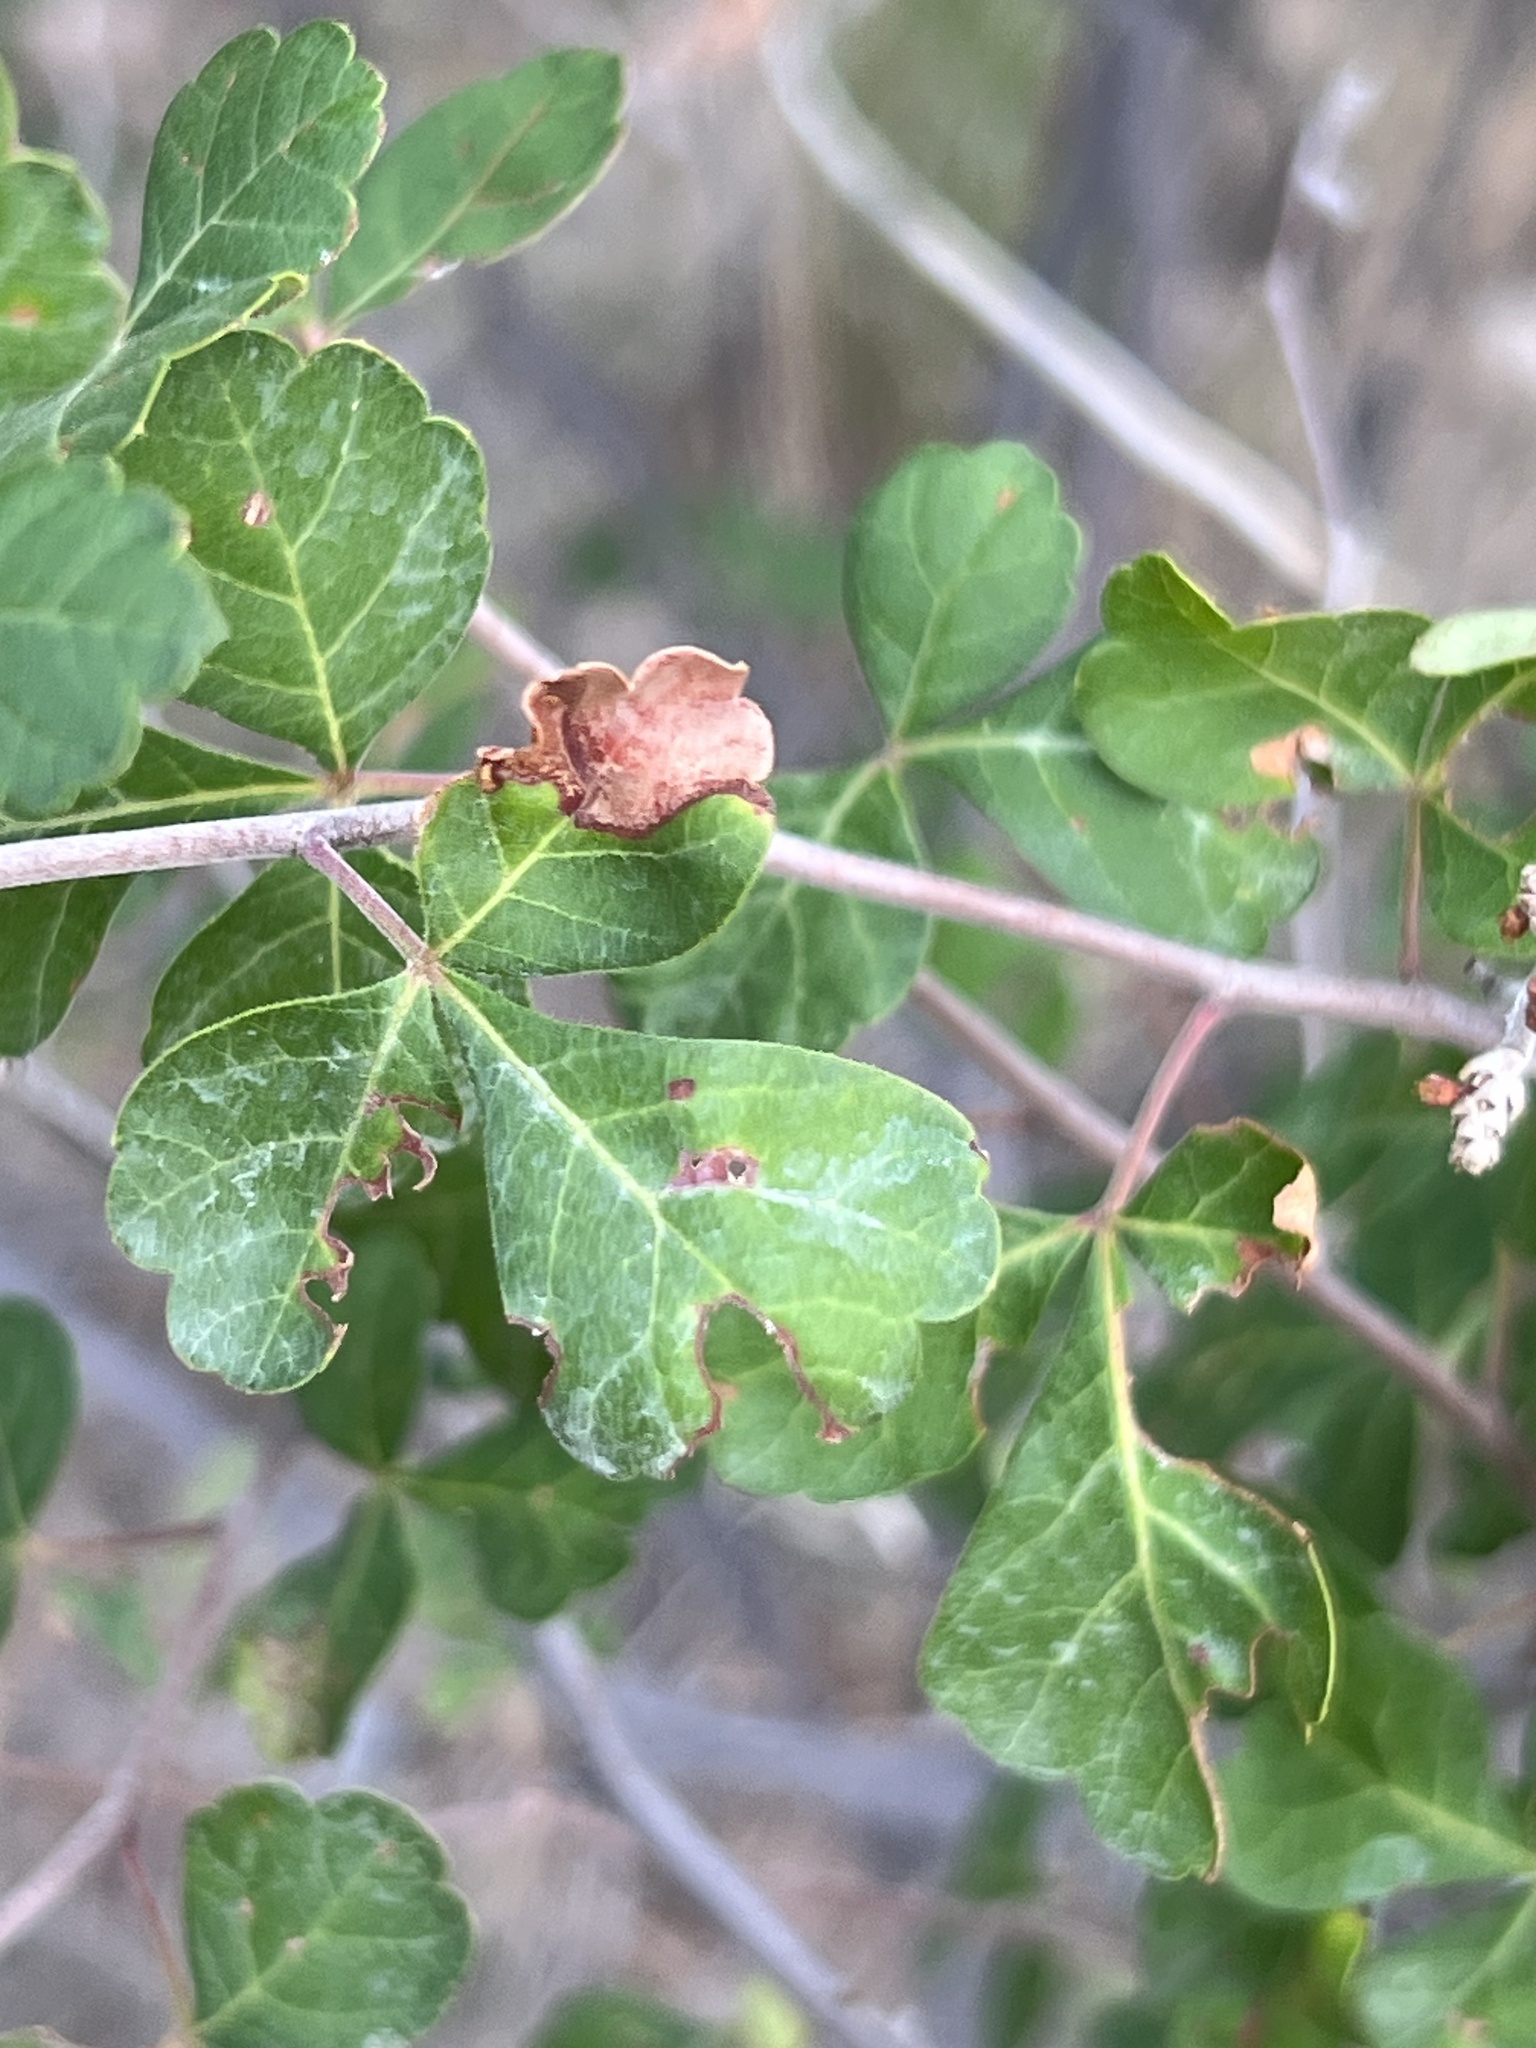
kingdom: Plantae
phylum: Tracheophyta
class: Magnoliopsida
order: Sapindales
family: Anacardiaceae
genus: Rhus
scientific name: Rhus aromatica
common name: Aromatic sumac
